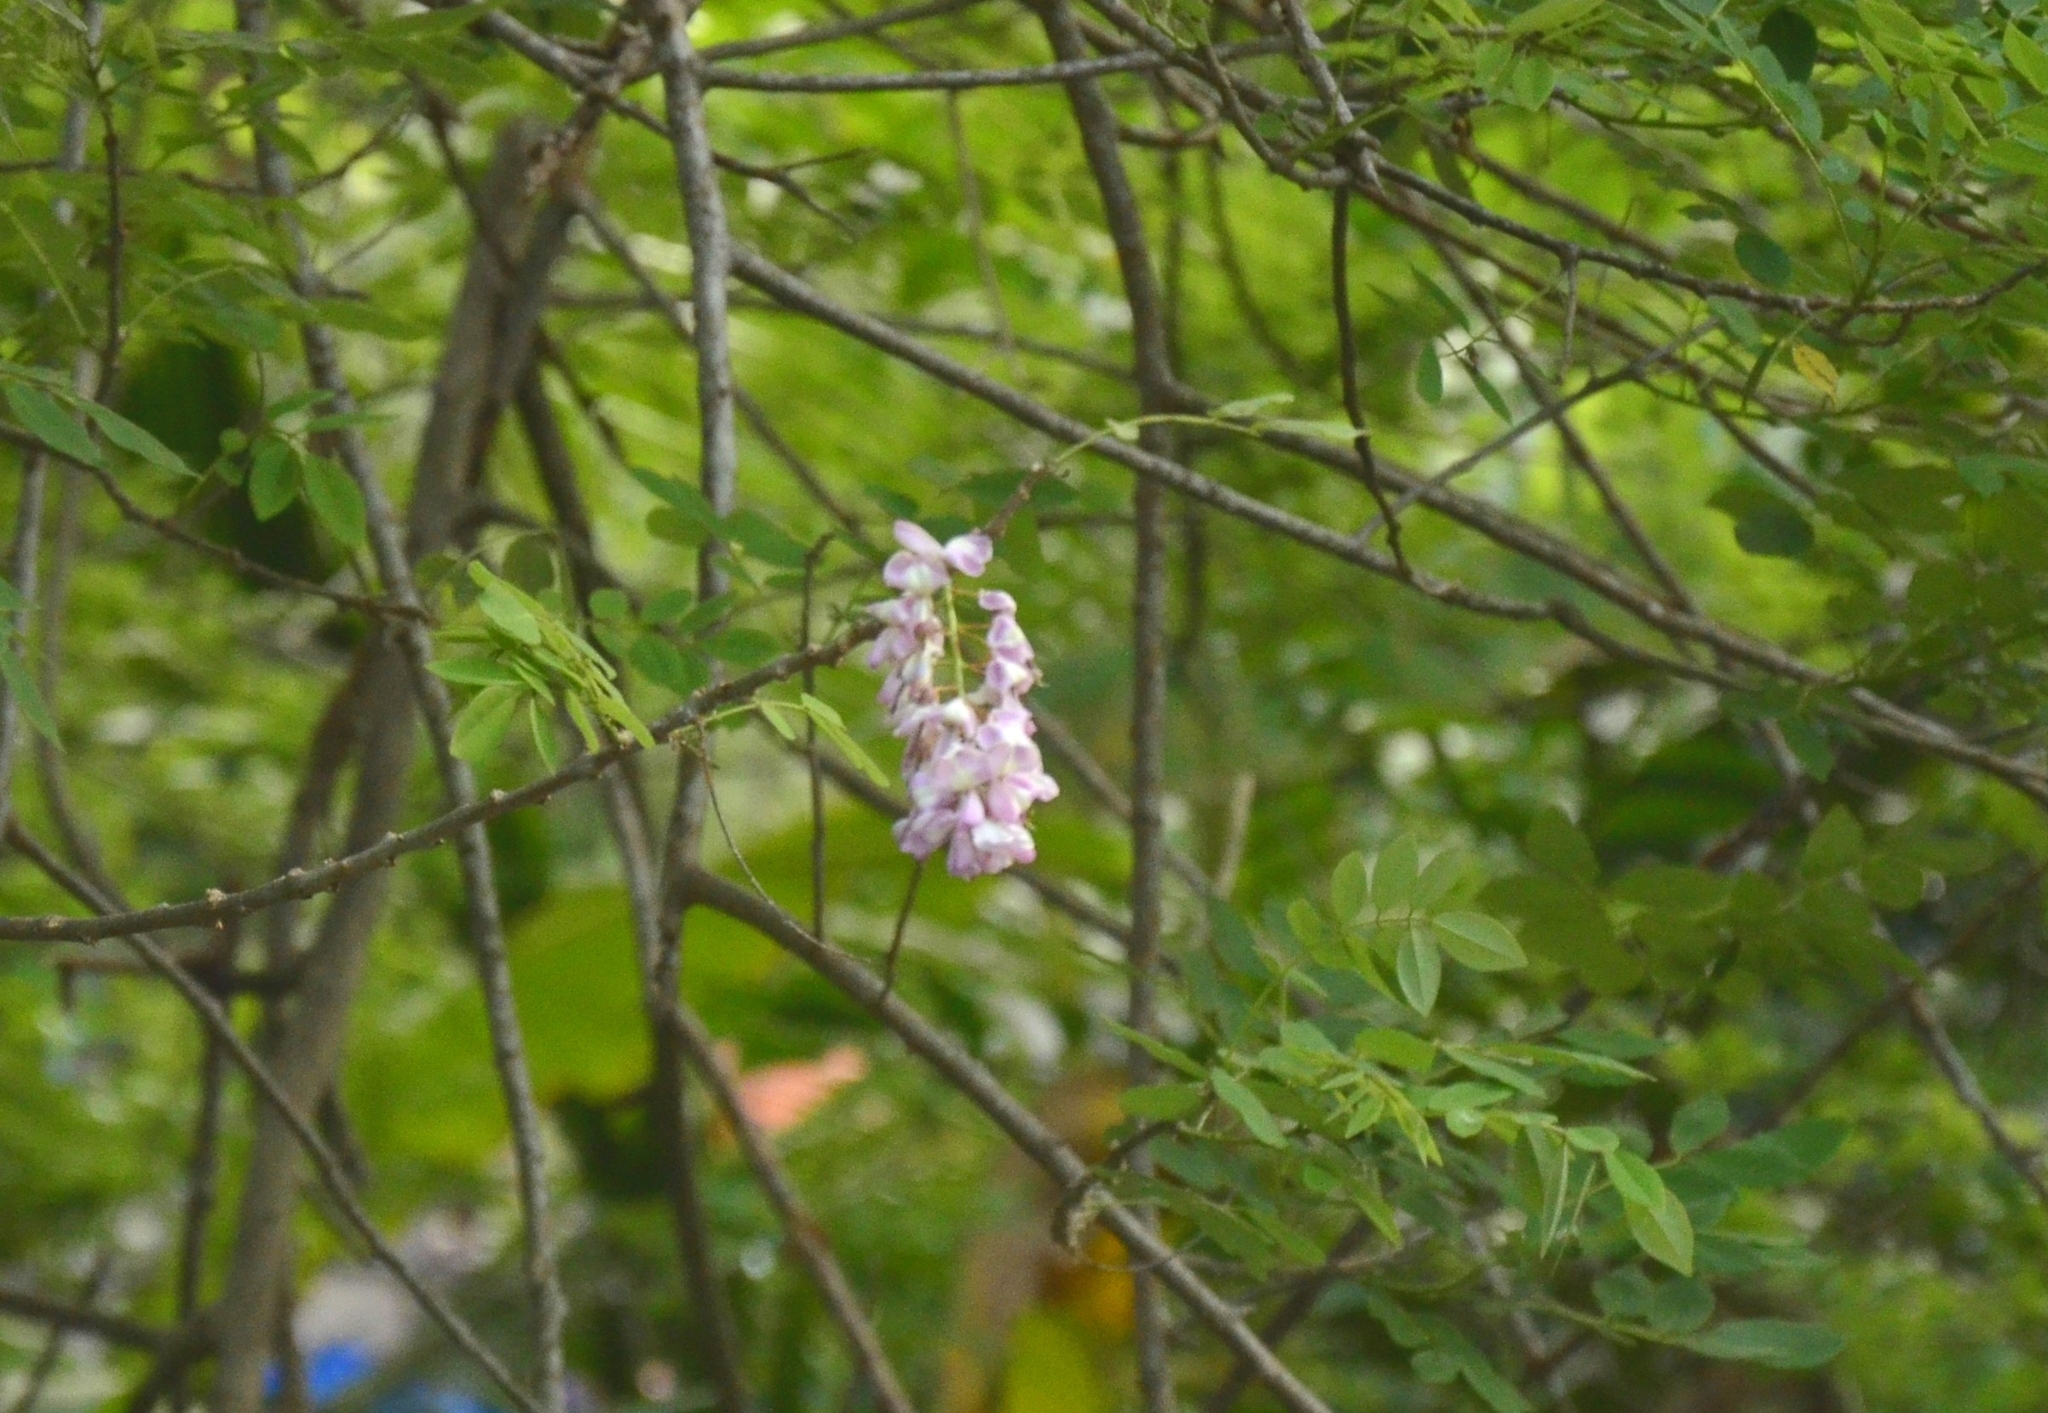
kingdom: Plantae
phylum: Tracheophyta
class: Magnoliopsida
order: Fabales
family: Fabaceae
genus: Gliricidia
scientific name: Gliricidia sepium
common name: Quickstick
